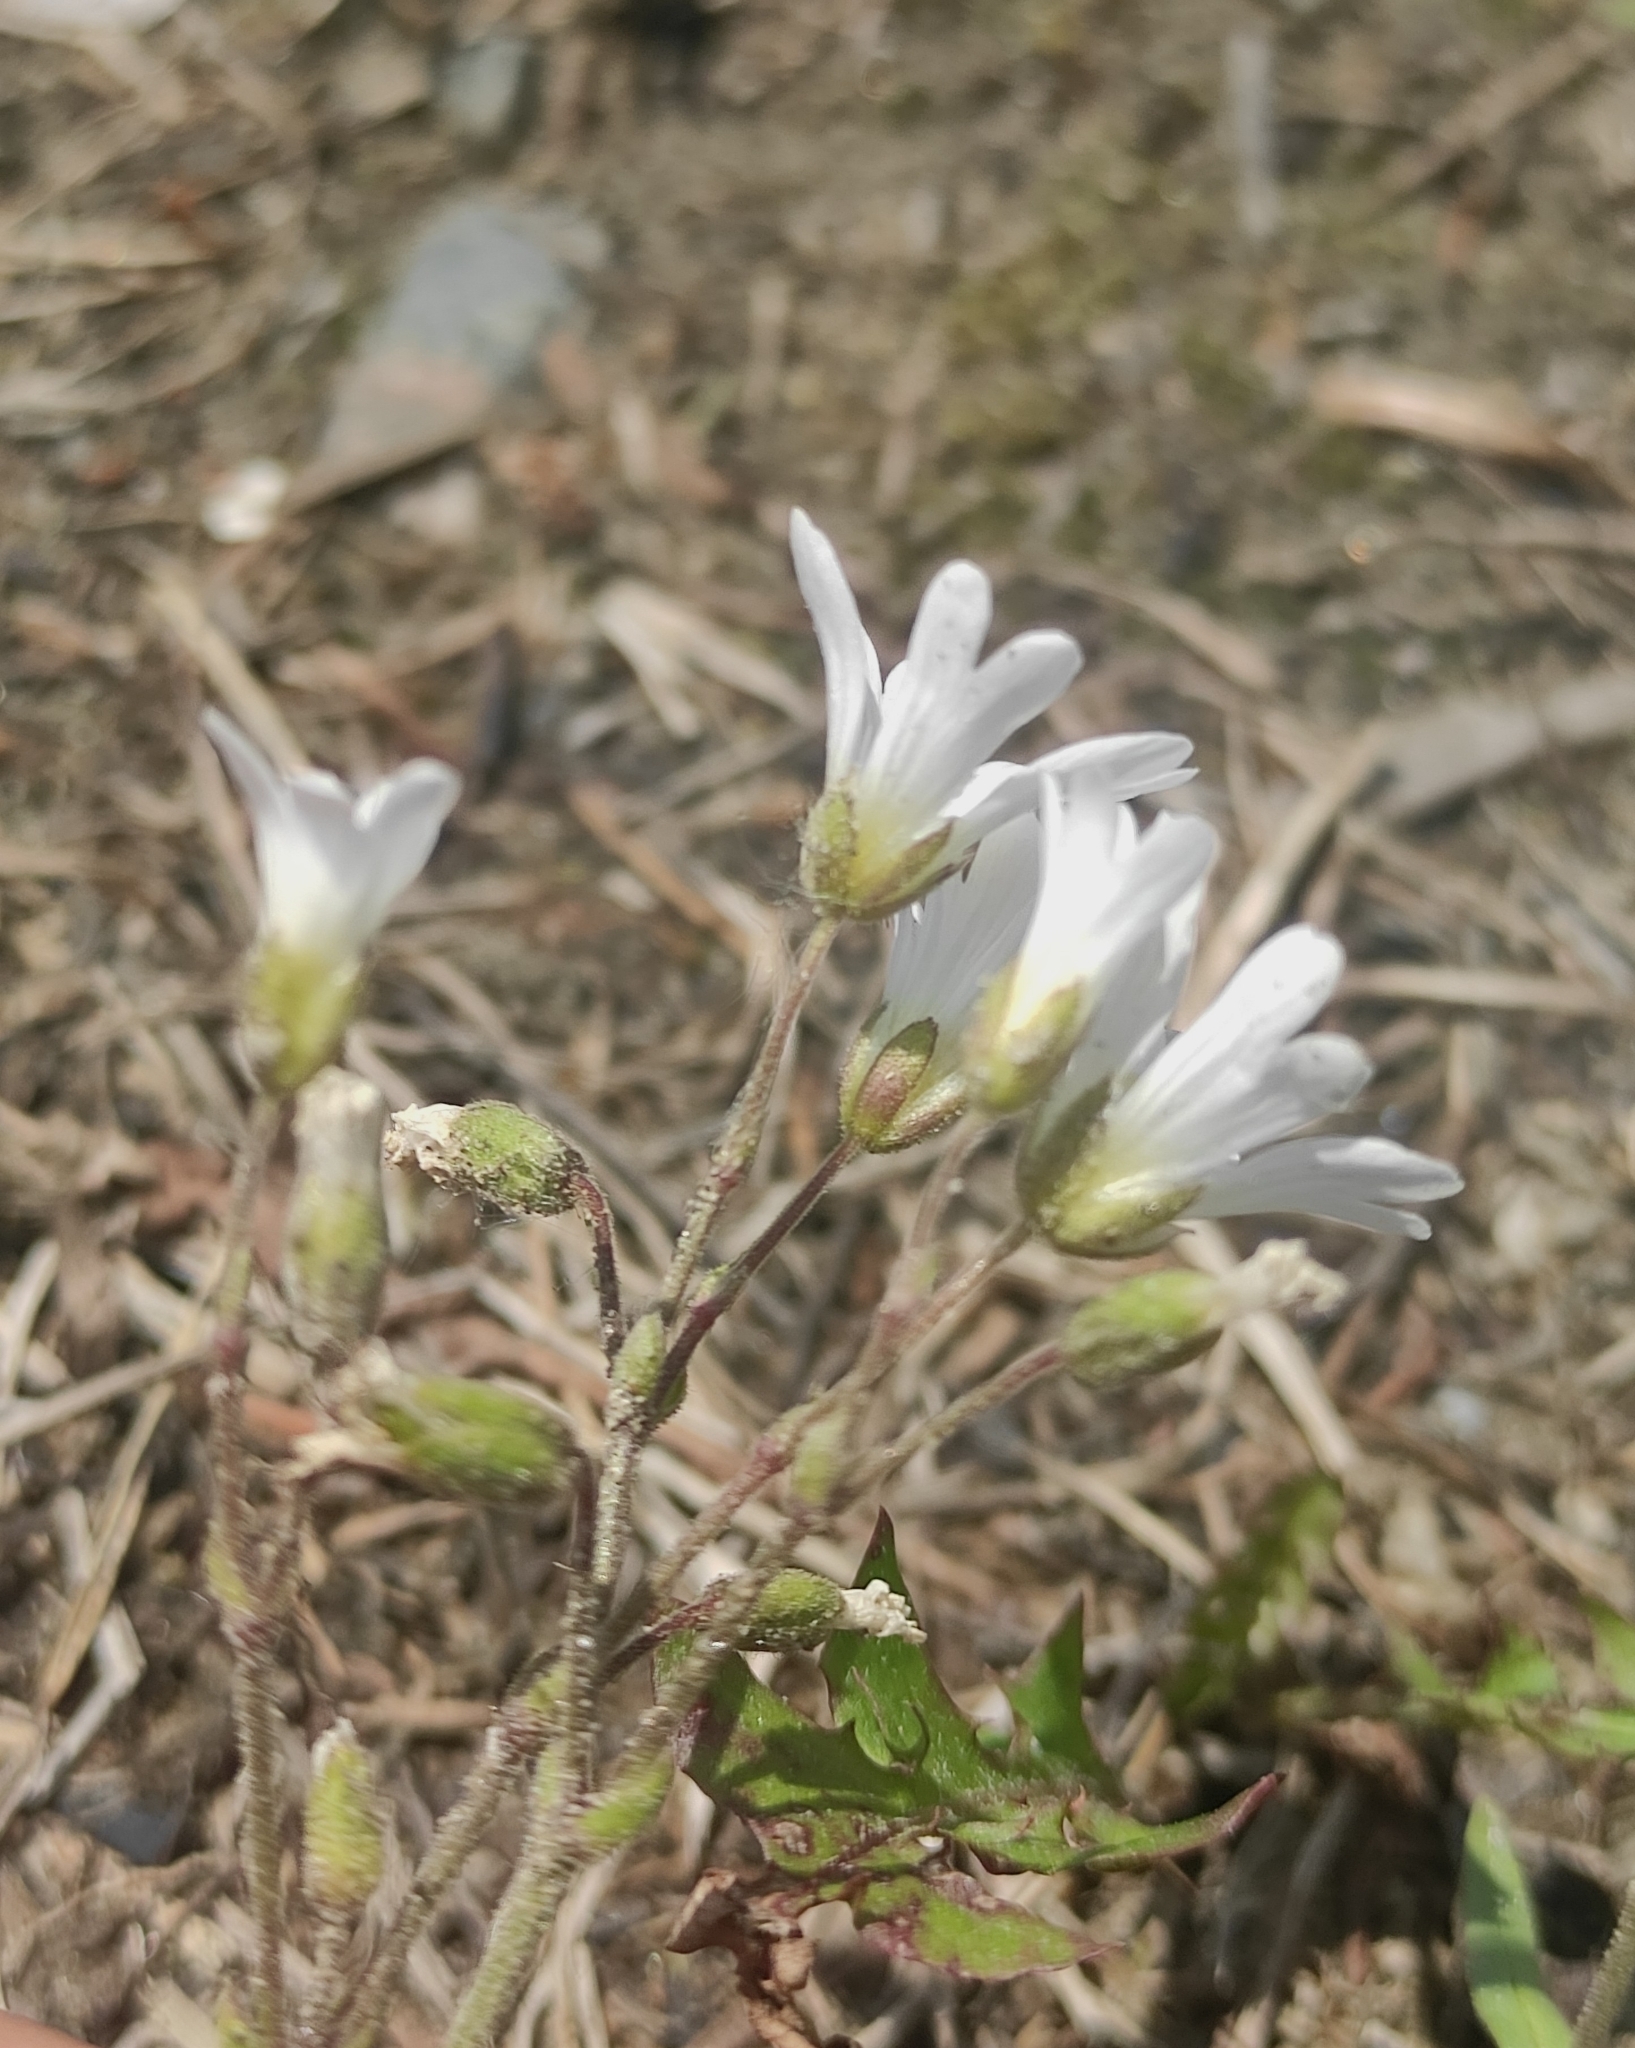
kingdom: Plantae
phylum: Tracheophyta
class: Magnoliopsida
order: Caryophyllales
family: Caryophyllaceae
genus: Cerastium
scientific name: Cerastium arvense
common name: Field mouse-ear
